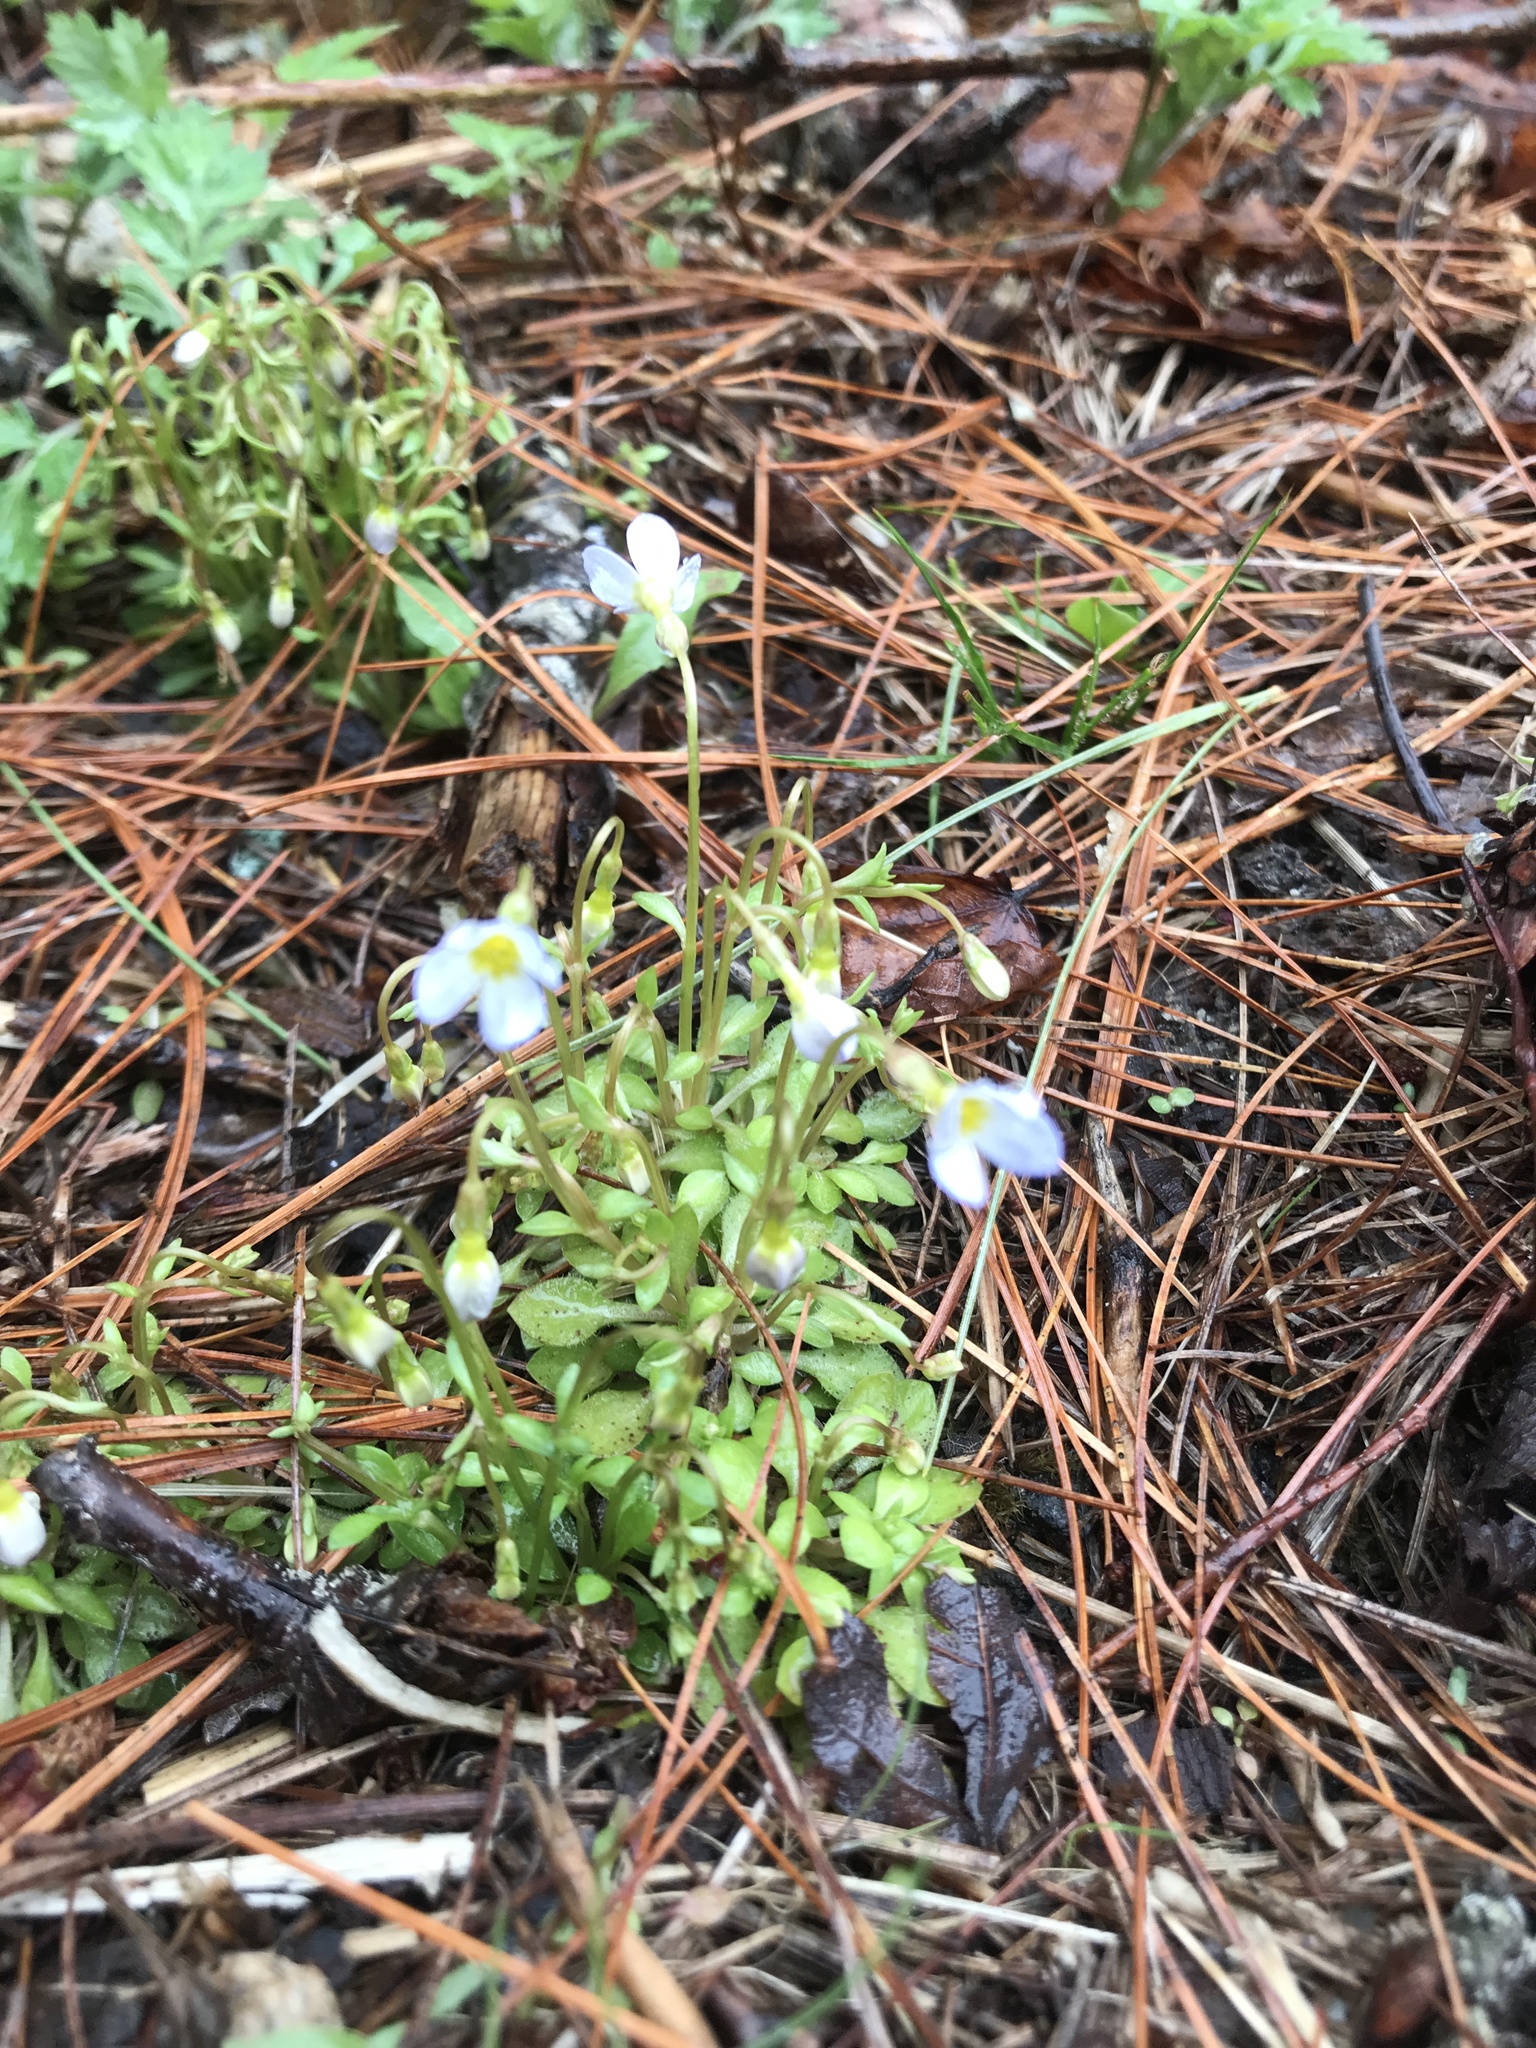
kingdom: Plantae
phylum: Tracheophyta
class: Magnoliopsida
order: Gentianales
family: Rubiaceae
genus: Houstonia
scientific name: Houstonia caerulea
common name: Bluets
